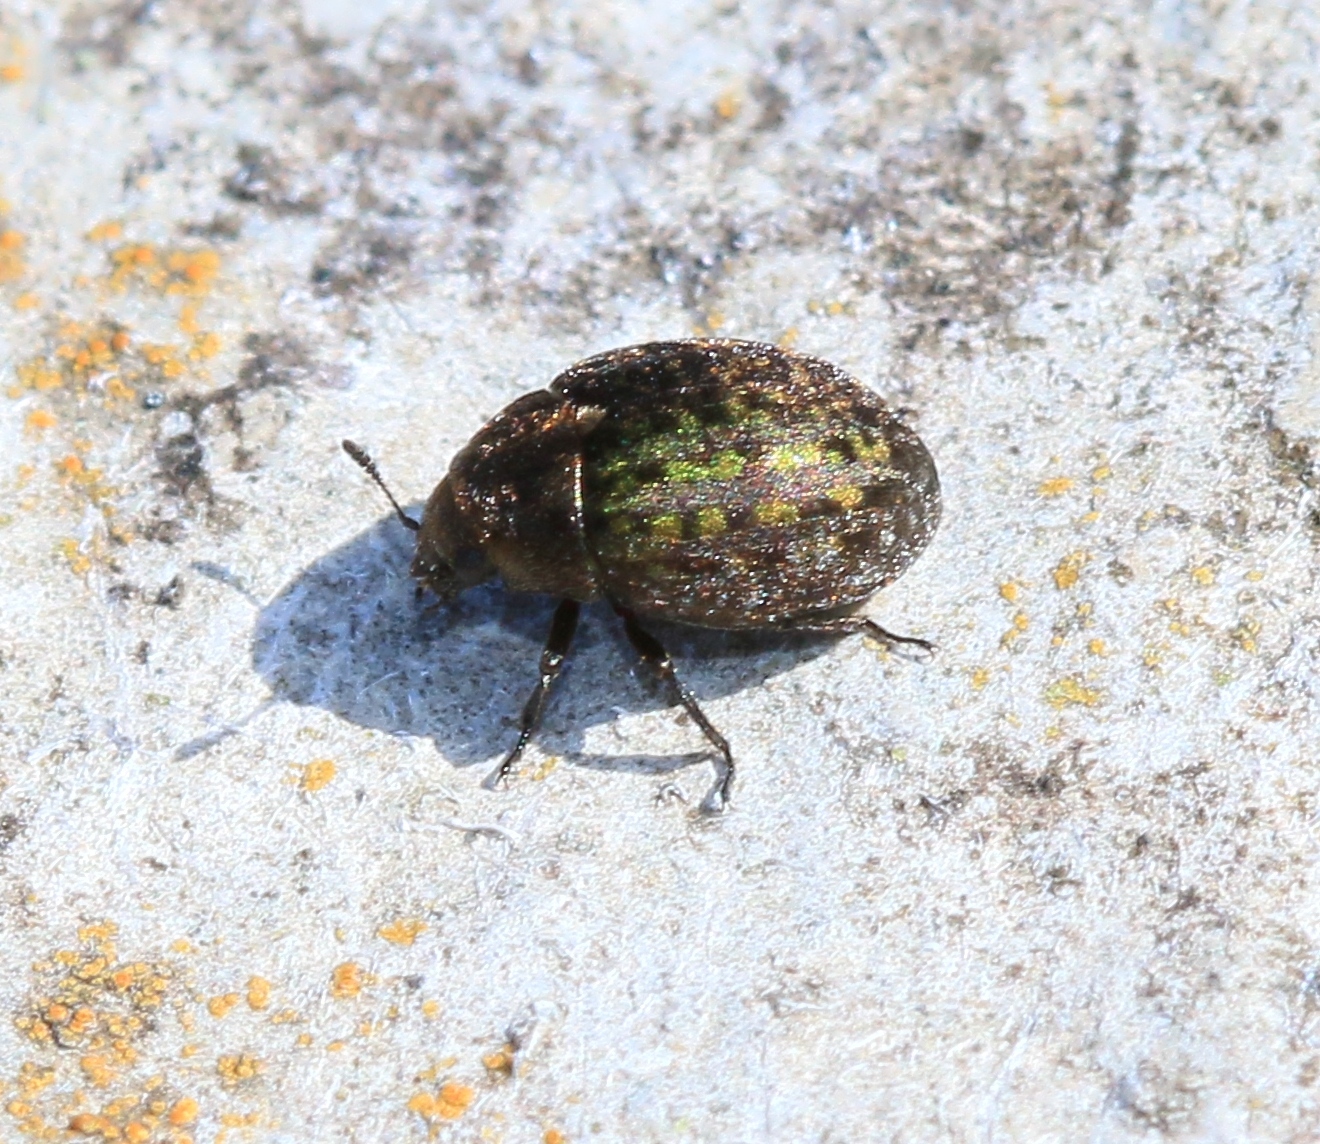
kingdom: Animalia
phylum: Arthropoda
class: Insecta
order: Coleoptera
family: Byrrhidae
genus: Cytilus
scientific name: Cytilus sericeus
